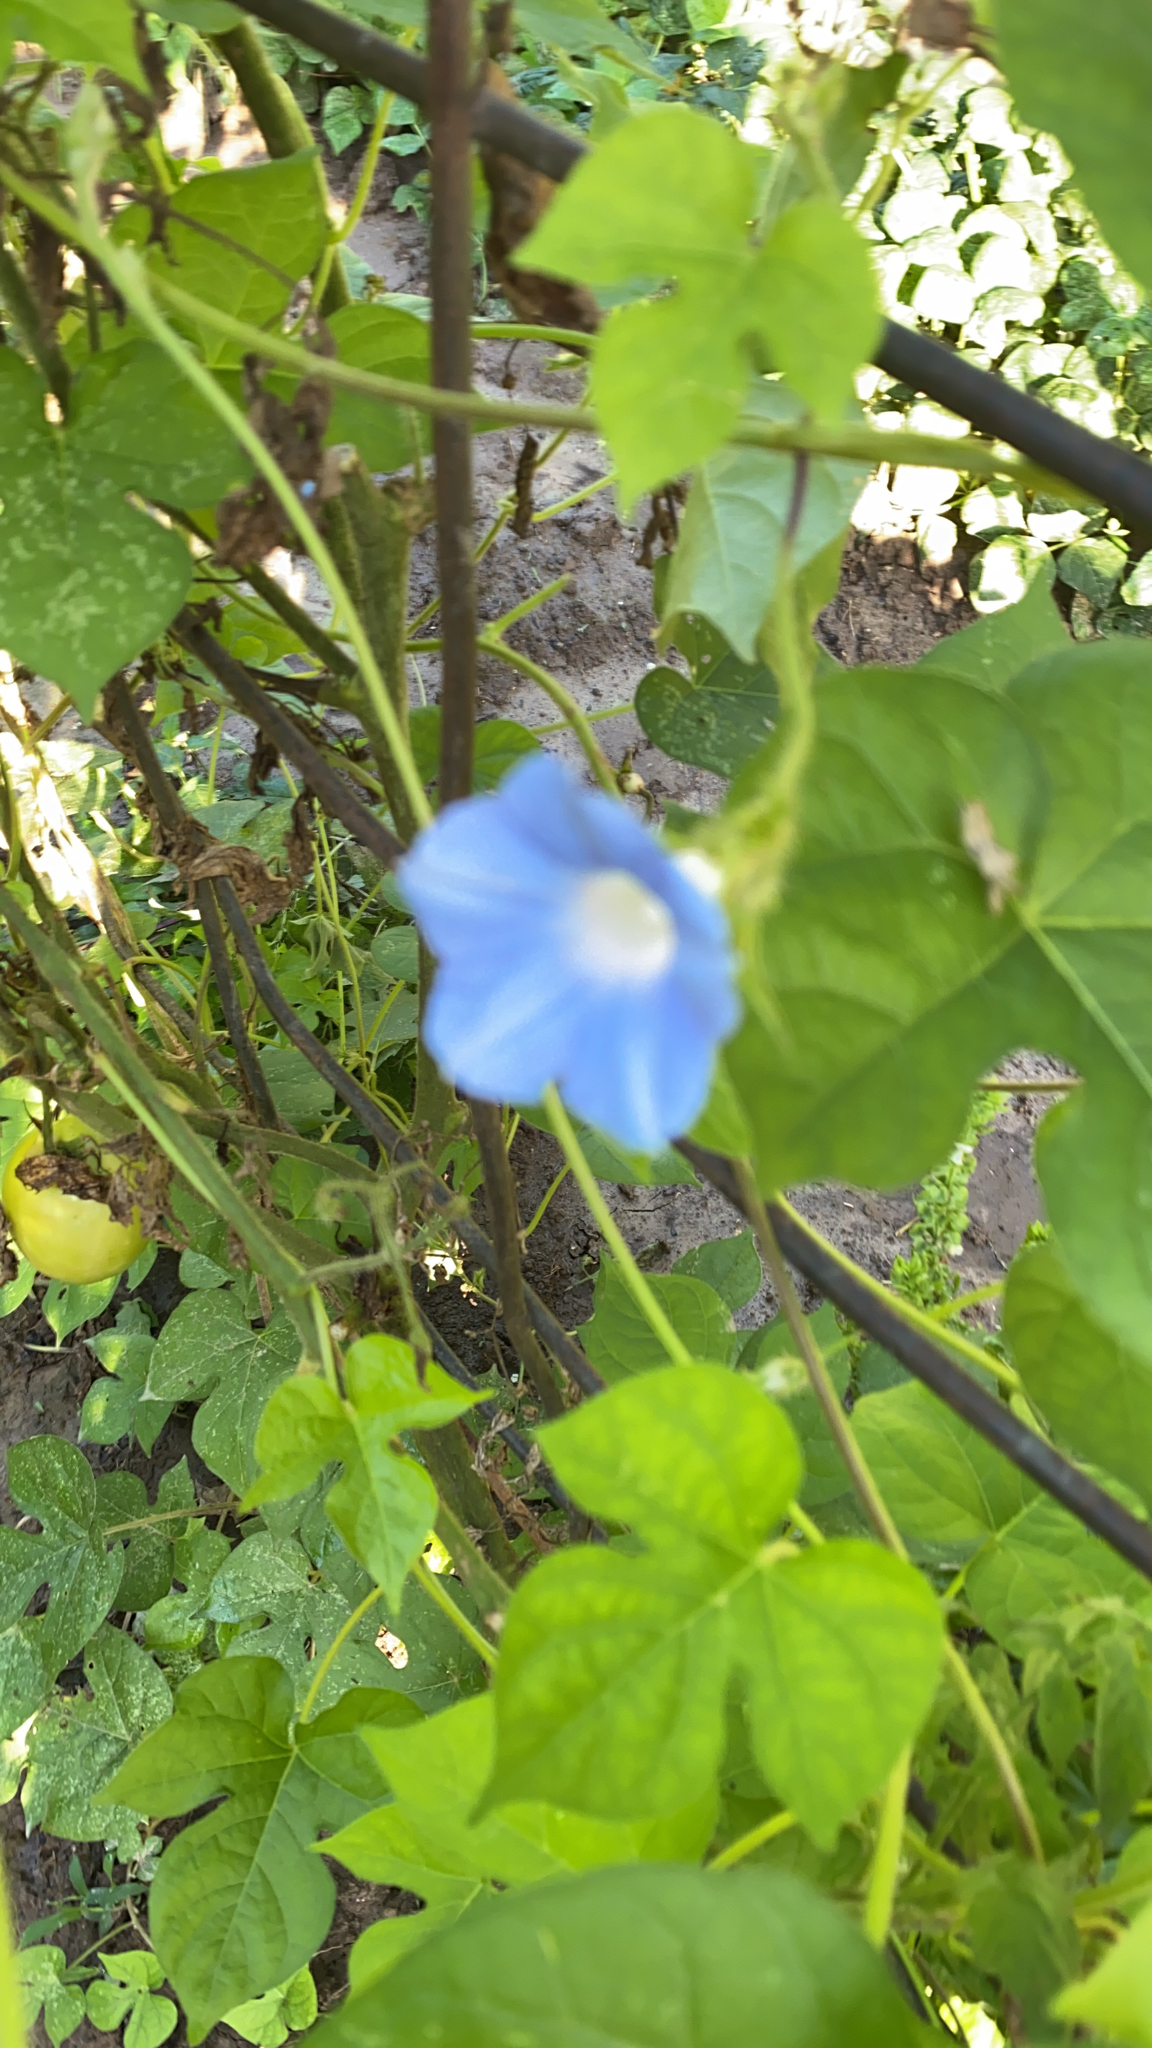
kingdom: Plantae
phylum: Tracheophyta
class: Magnoliopsida
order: Solanales
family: Convolvulaceae
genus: Ipomoea
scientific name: Ipomoea hederacea
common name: Ivy-leaved morning-glory
